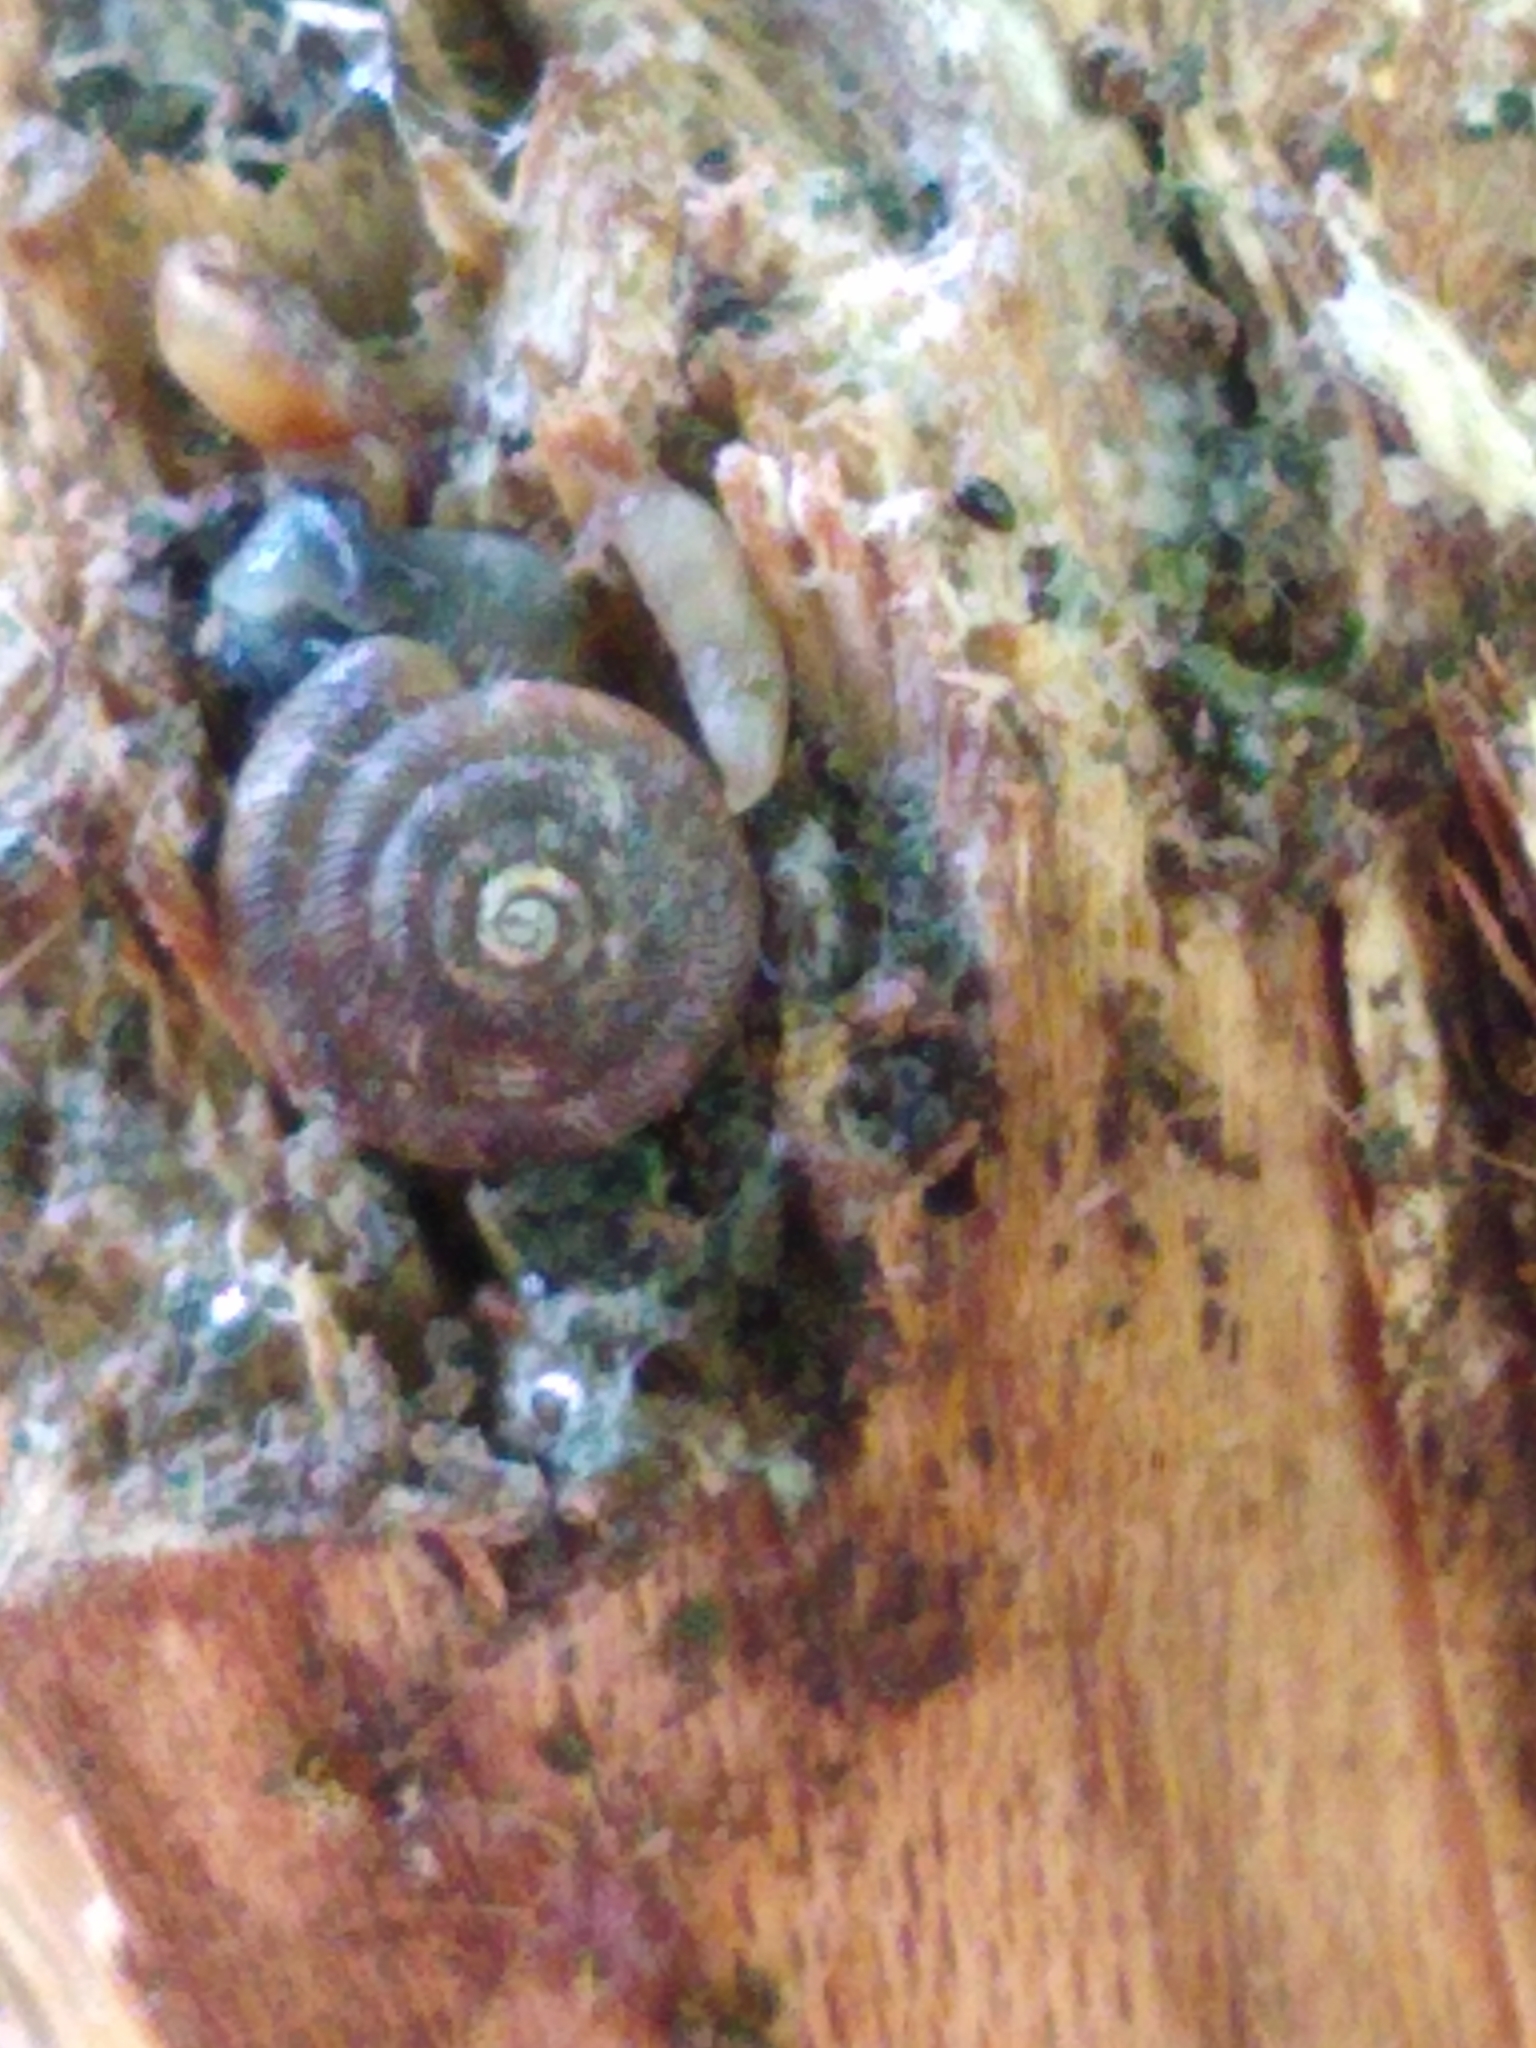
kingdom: Animalia
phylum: Mollusca
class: Gastropoda
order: Stylommatophora
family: Discidae
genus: Discus
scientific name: Discus rotundatus
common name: Rounded snail
